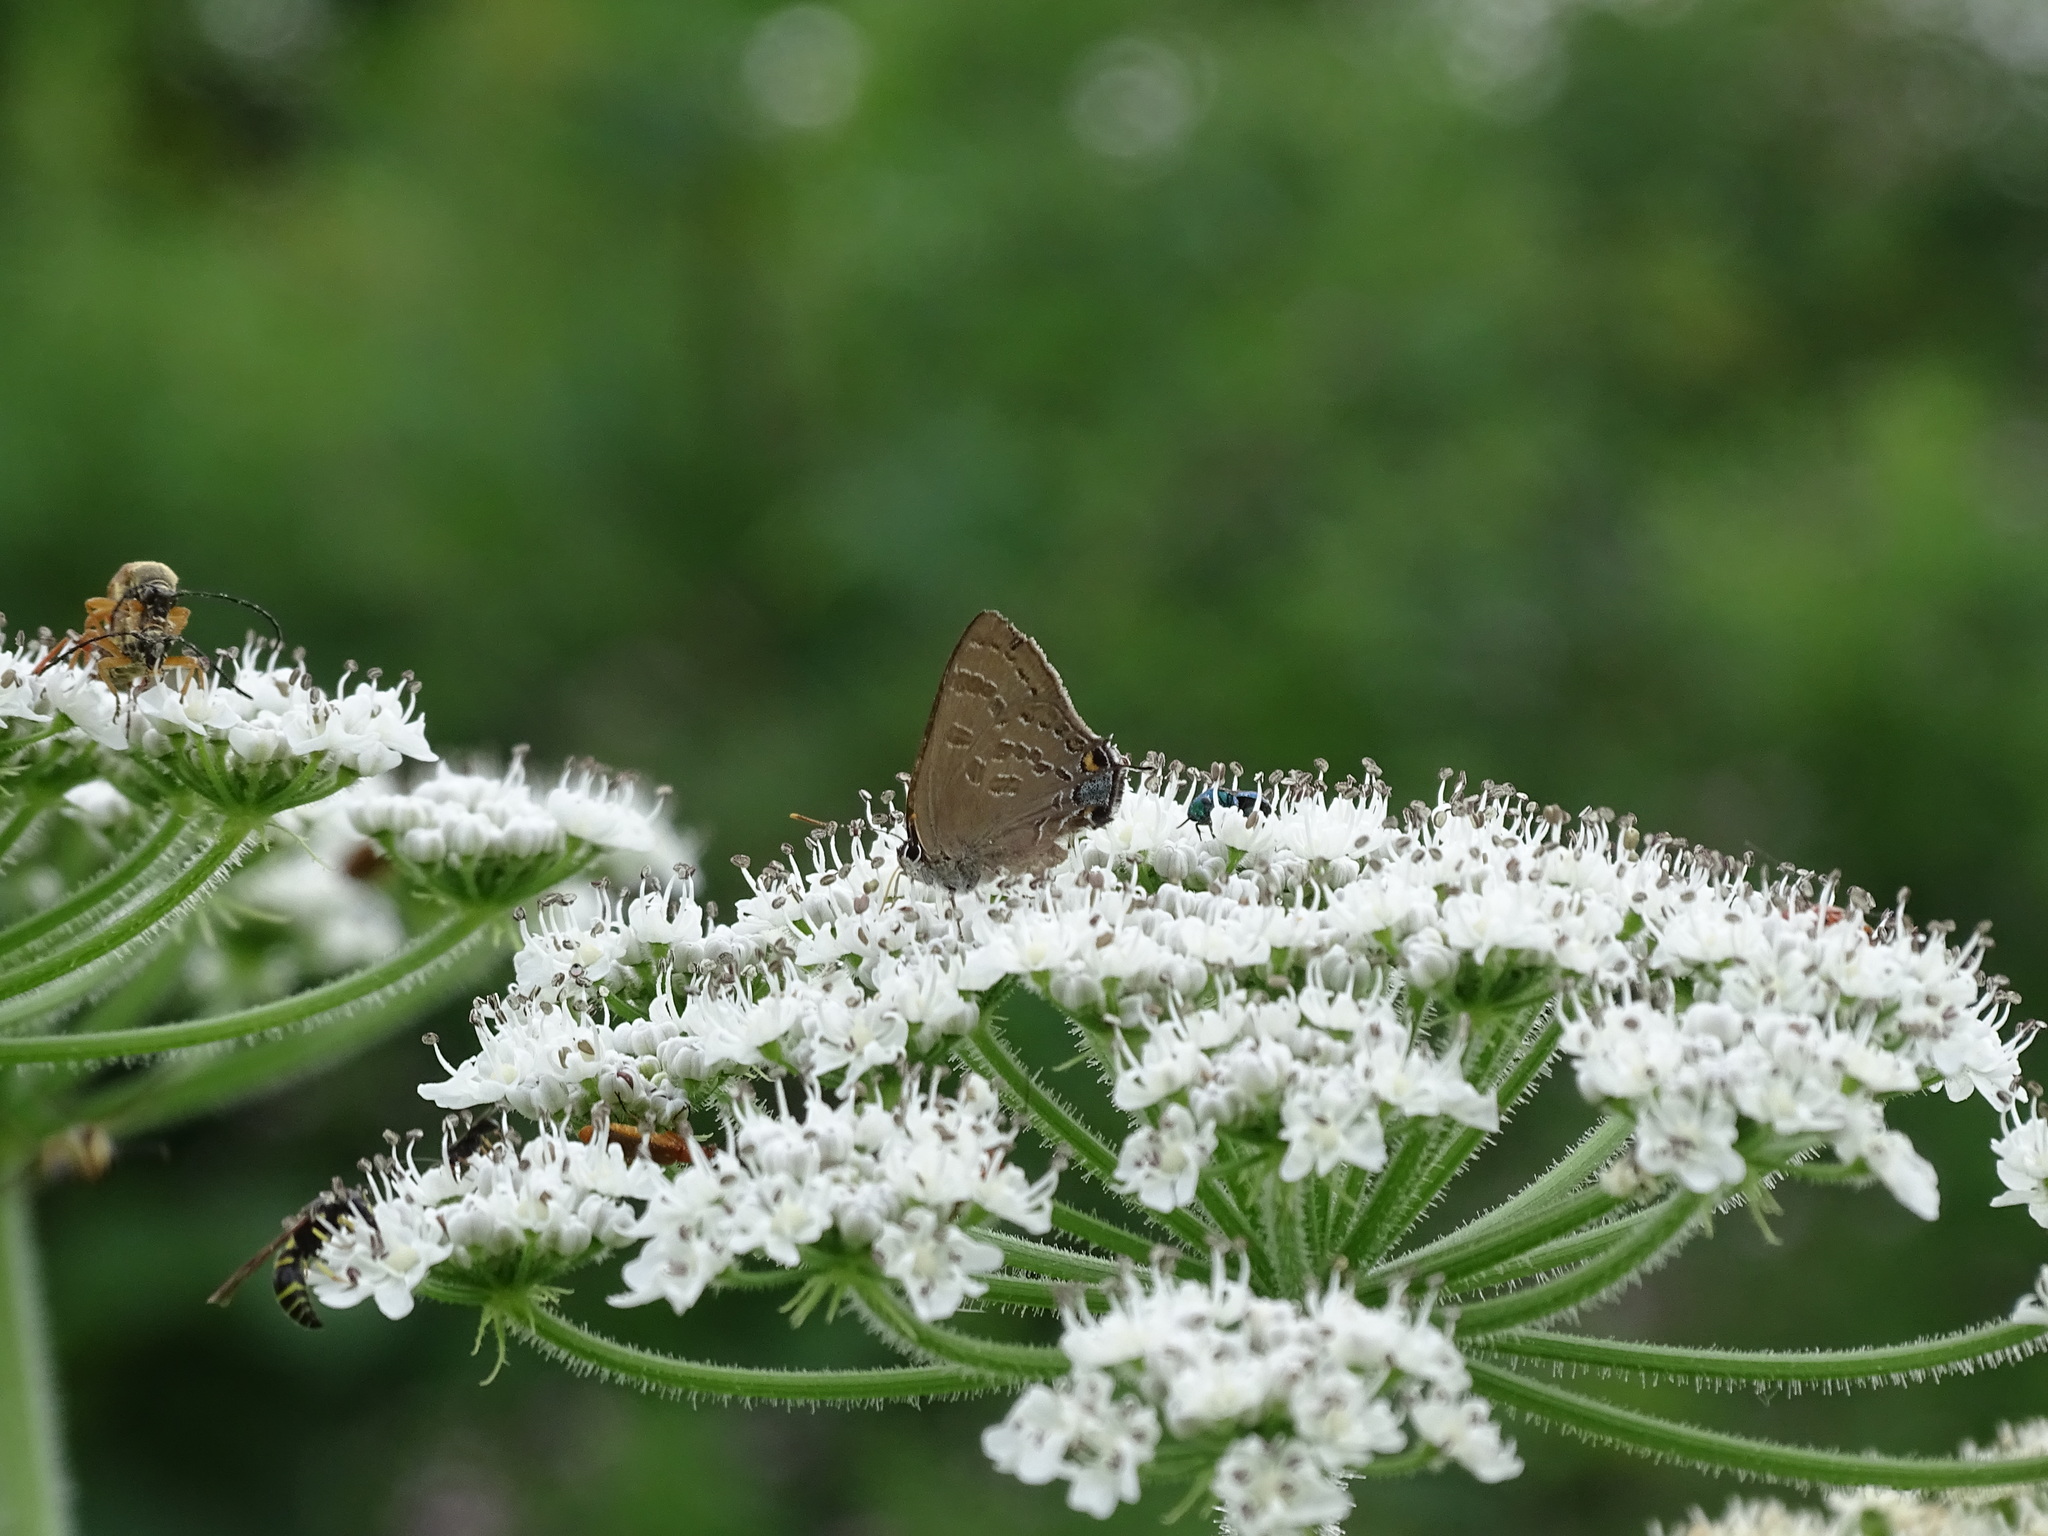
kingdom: Animalia
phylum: Arthropoda
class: Insecta
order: Lepidoptera
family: Lycaenidae
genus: Strymon
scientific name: Strymon caryaevorus
